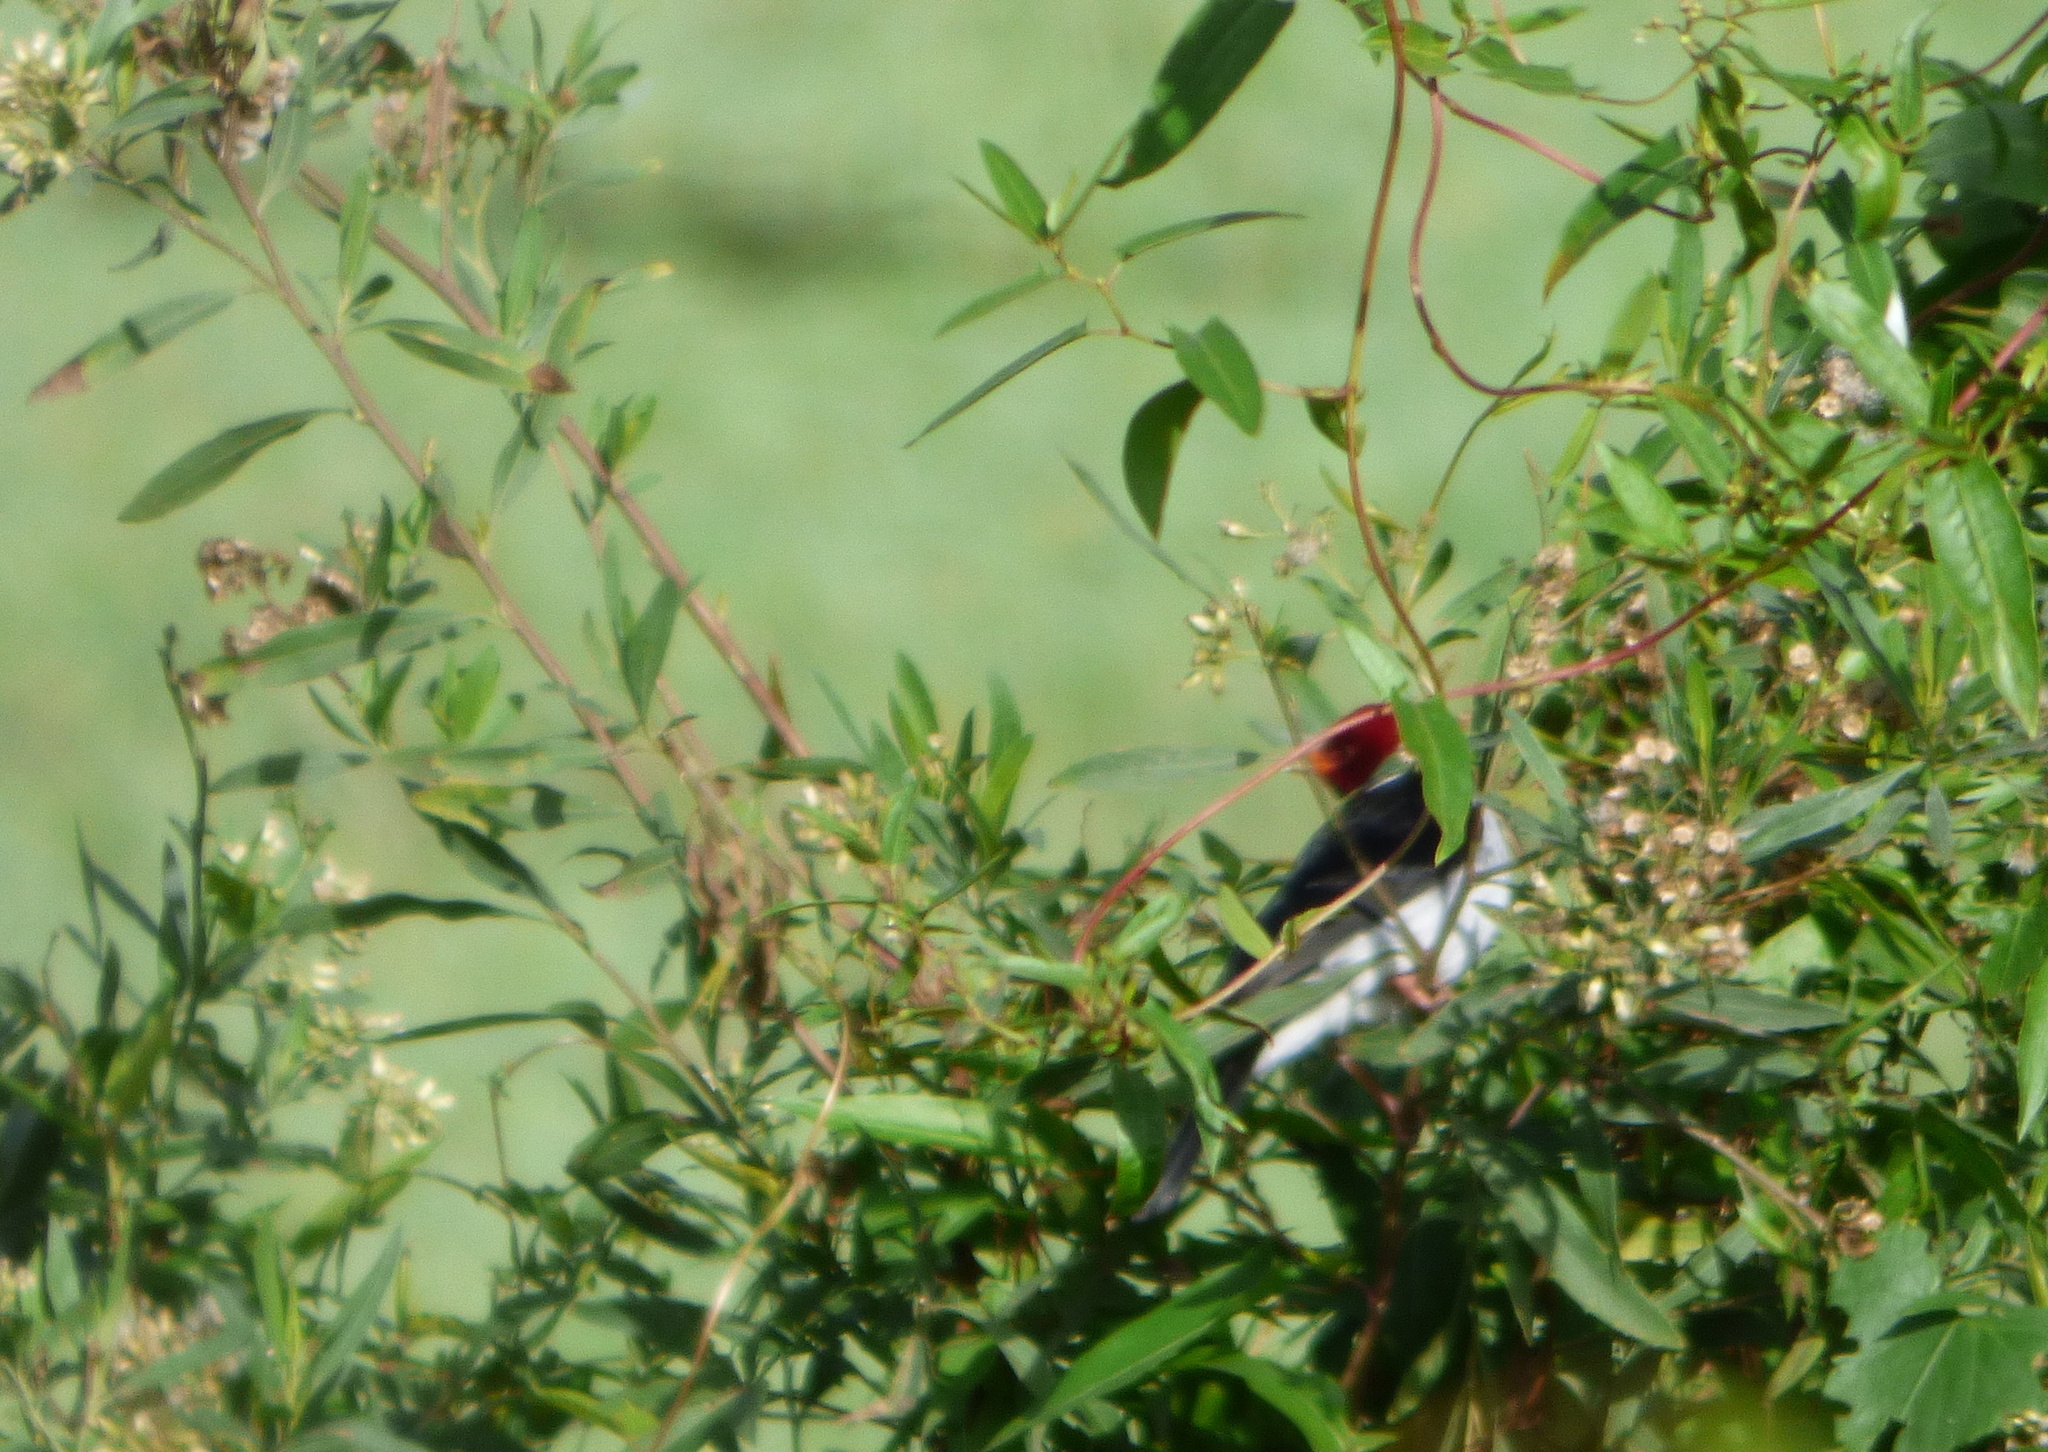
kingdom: Animalia
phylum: Chordata
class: Aves
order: Passeriformes
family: Thraupidae
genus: Paroaria
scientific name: Paroaria capitata
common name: Yellow-billed cardinal
